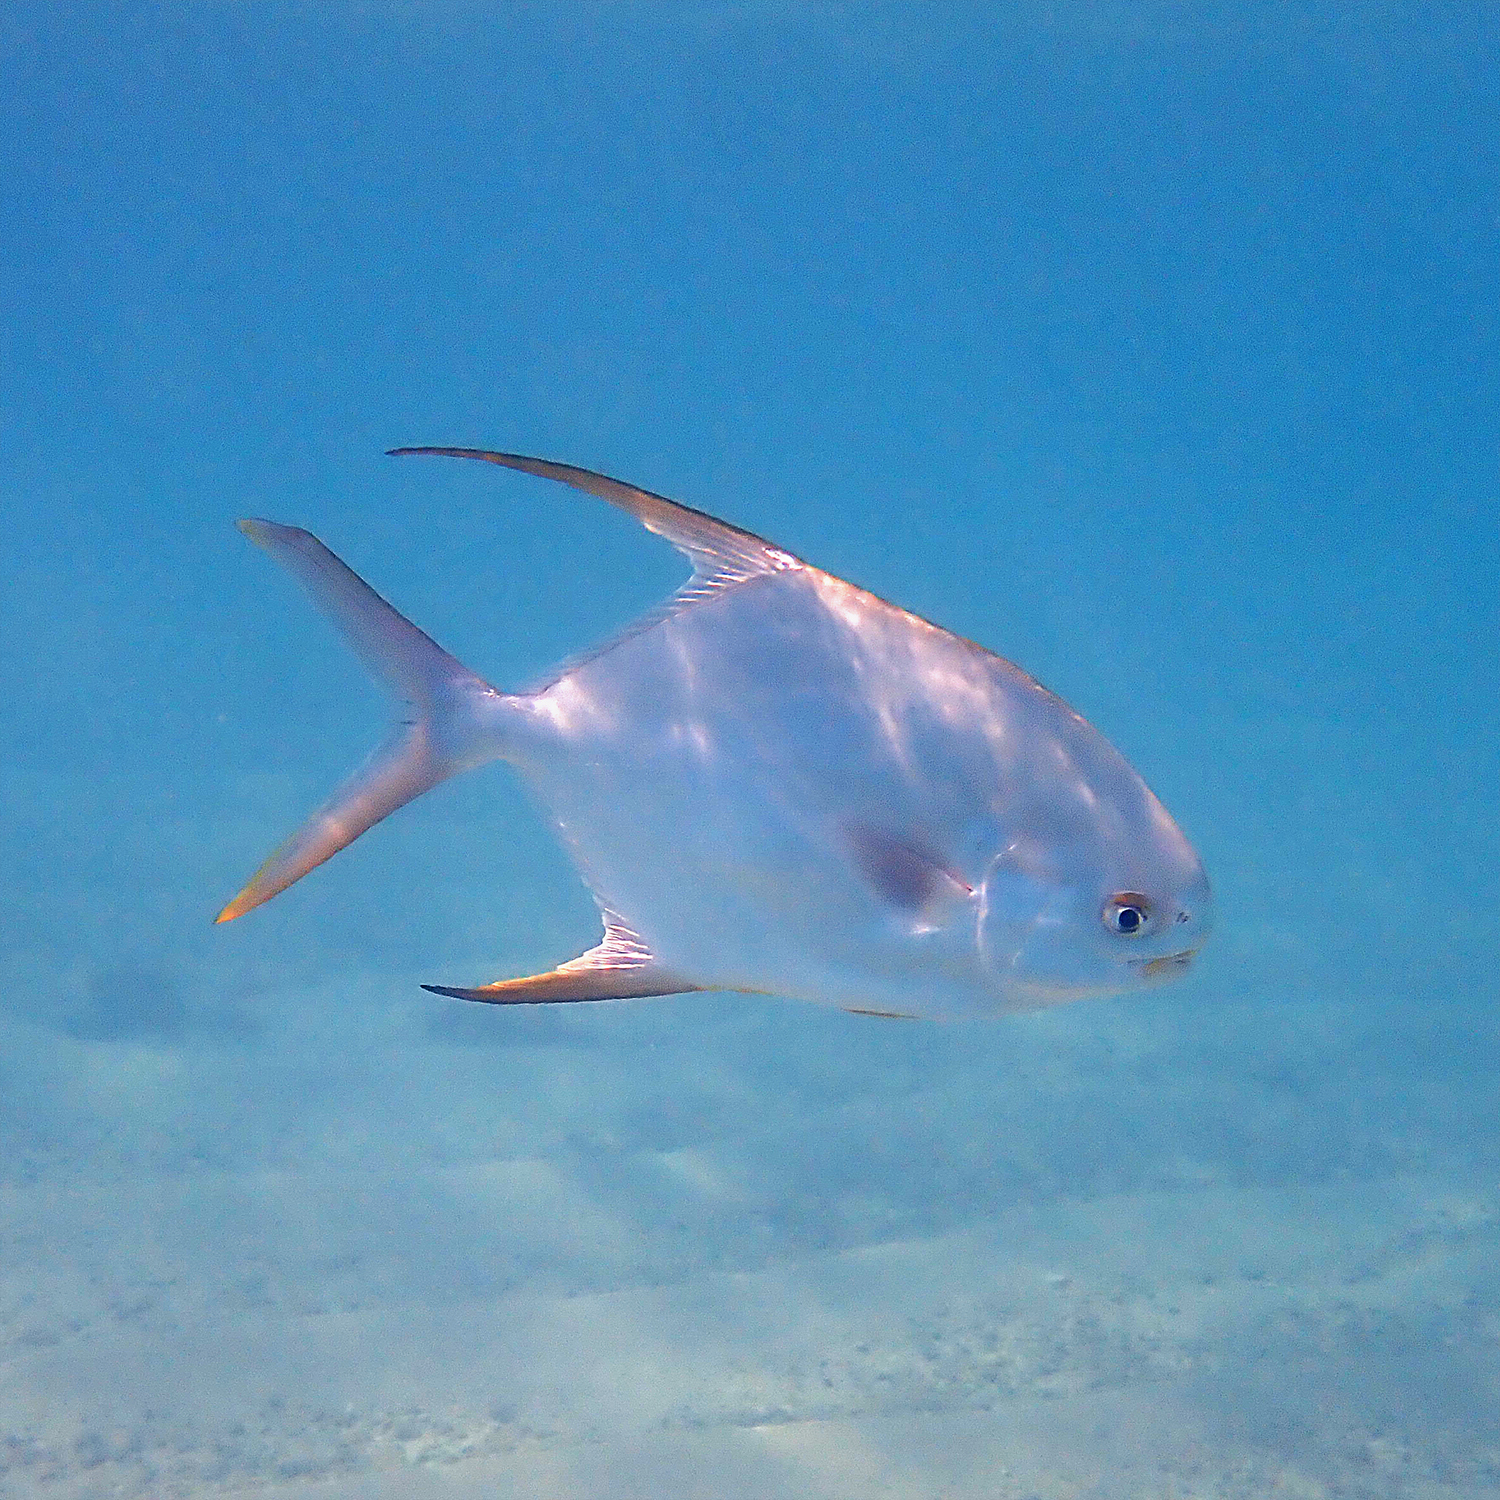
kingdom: Animalia
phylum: Chordata
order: Perciformes
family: Carangidae
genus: Trachinotus
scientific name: Trachinotus blochii
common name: Snubnose pompano
